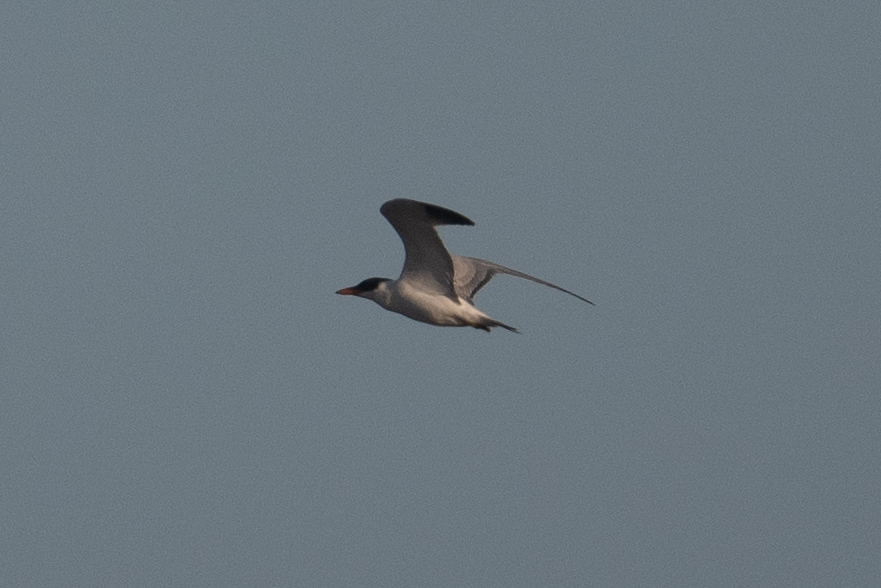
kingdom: Animalia
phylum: Chordata
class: Aves
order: Charadriiformes
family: Laridae
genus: Hydroprogne
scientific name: Hydroprogne caspia
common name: Caspian tern
